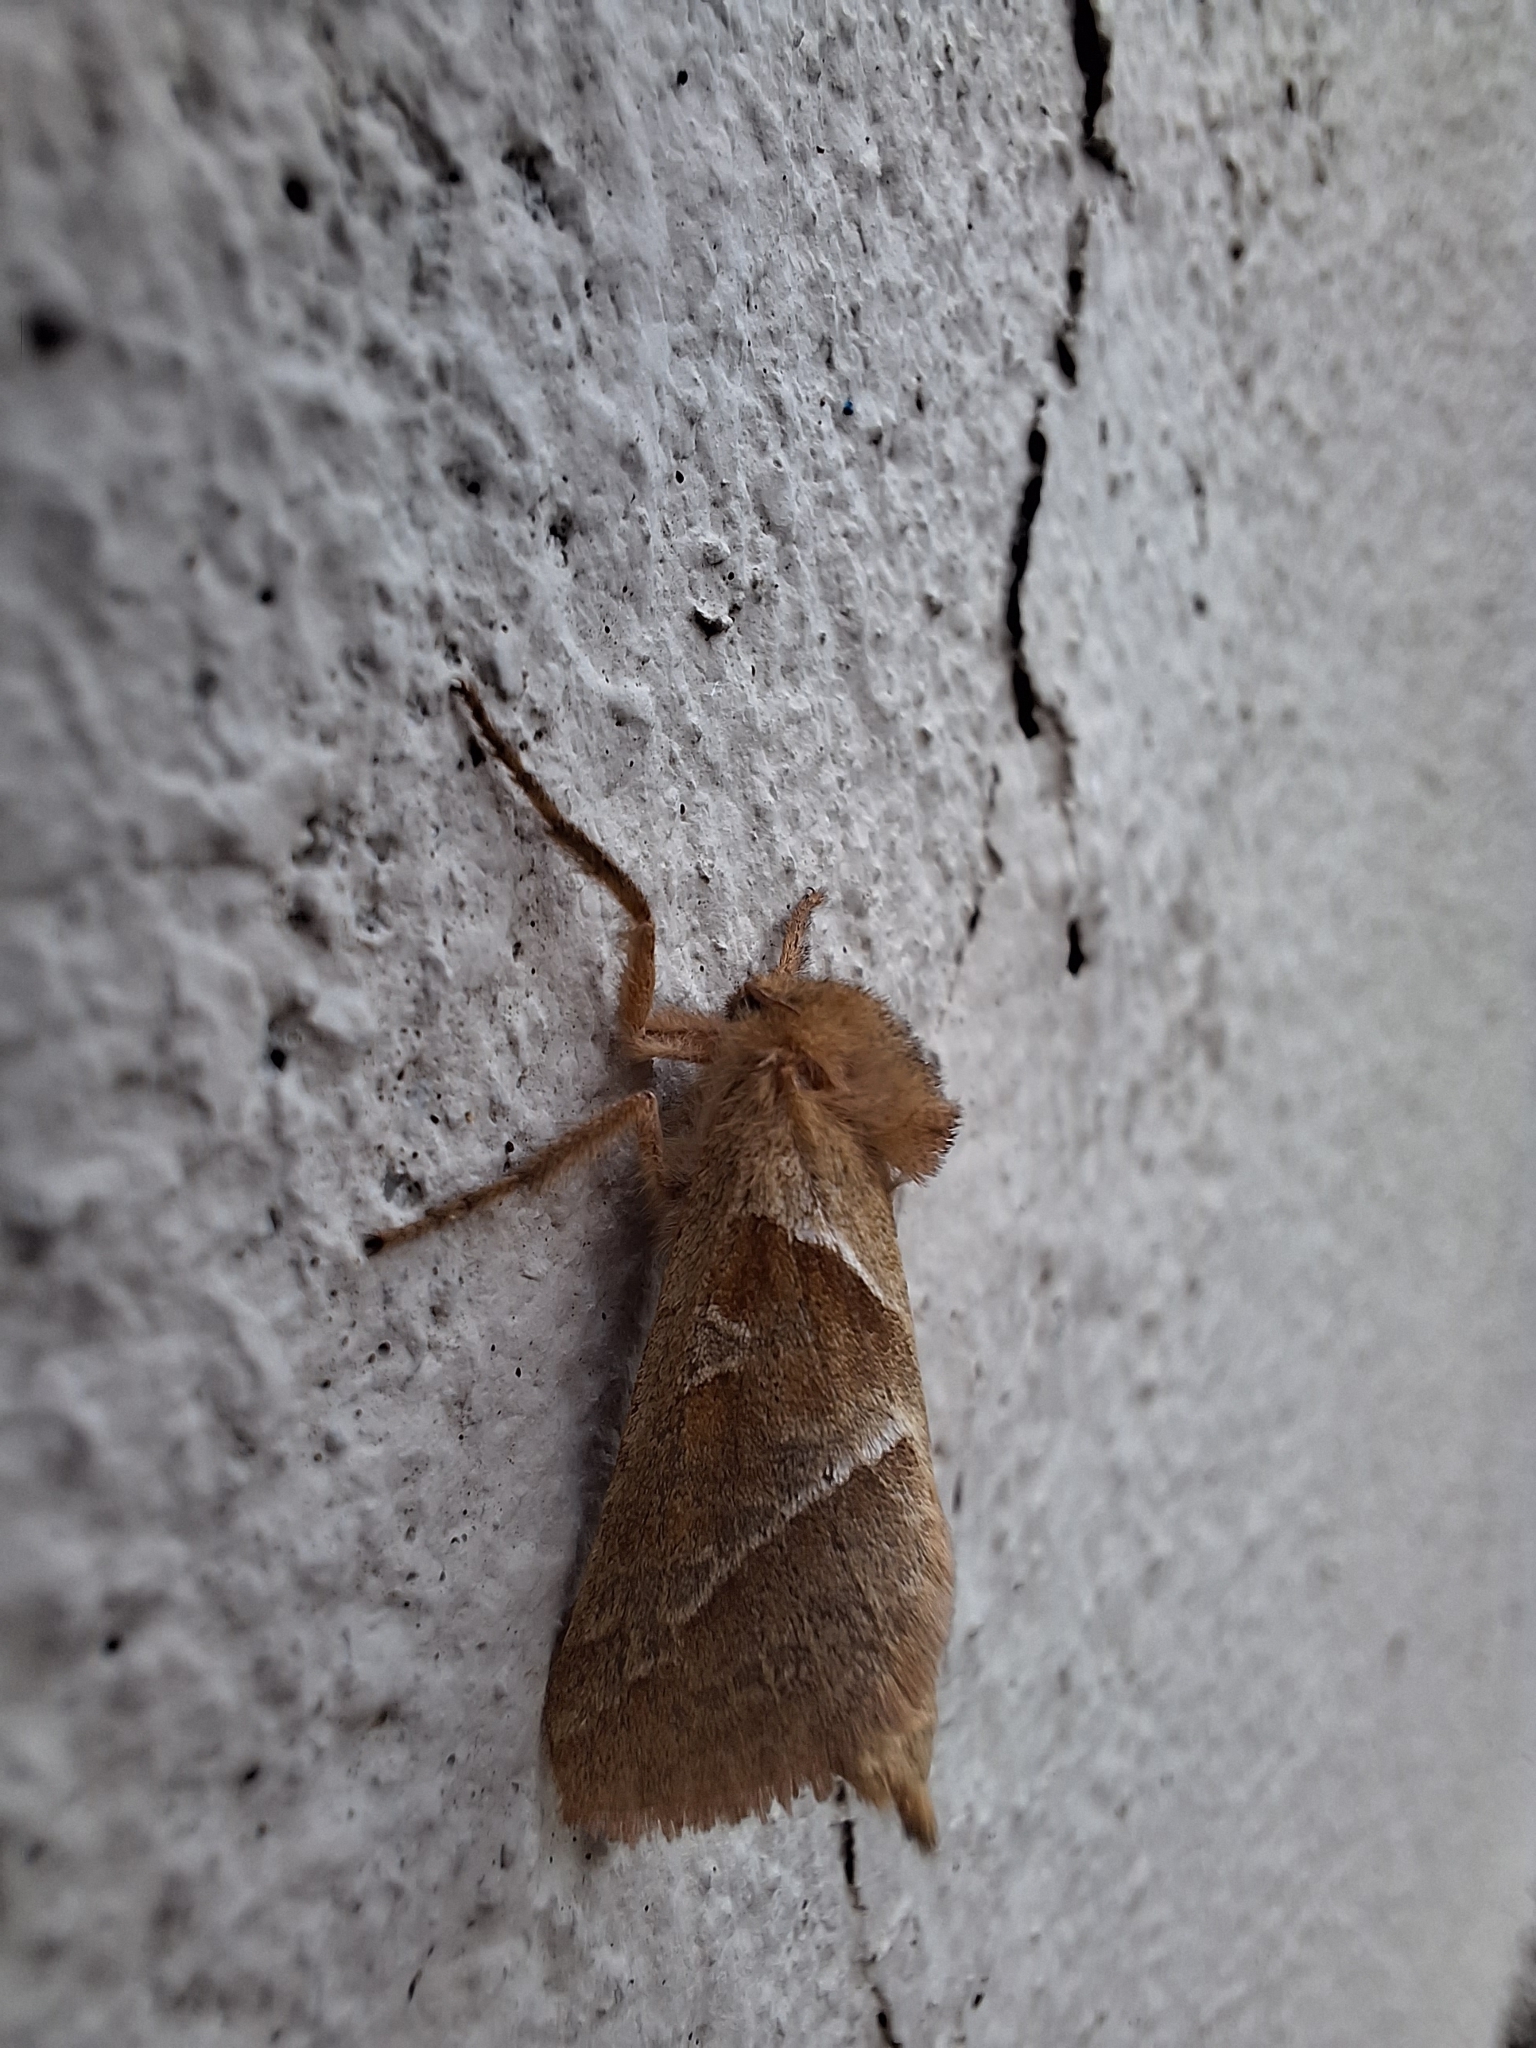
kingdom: Animalia
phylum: Arthropoda
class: Insecta
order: Lepidoptera
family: Hepialidae
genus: Triodia
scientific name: Triodia sylvina
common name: Orange swift
